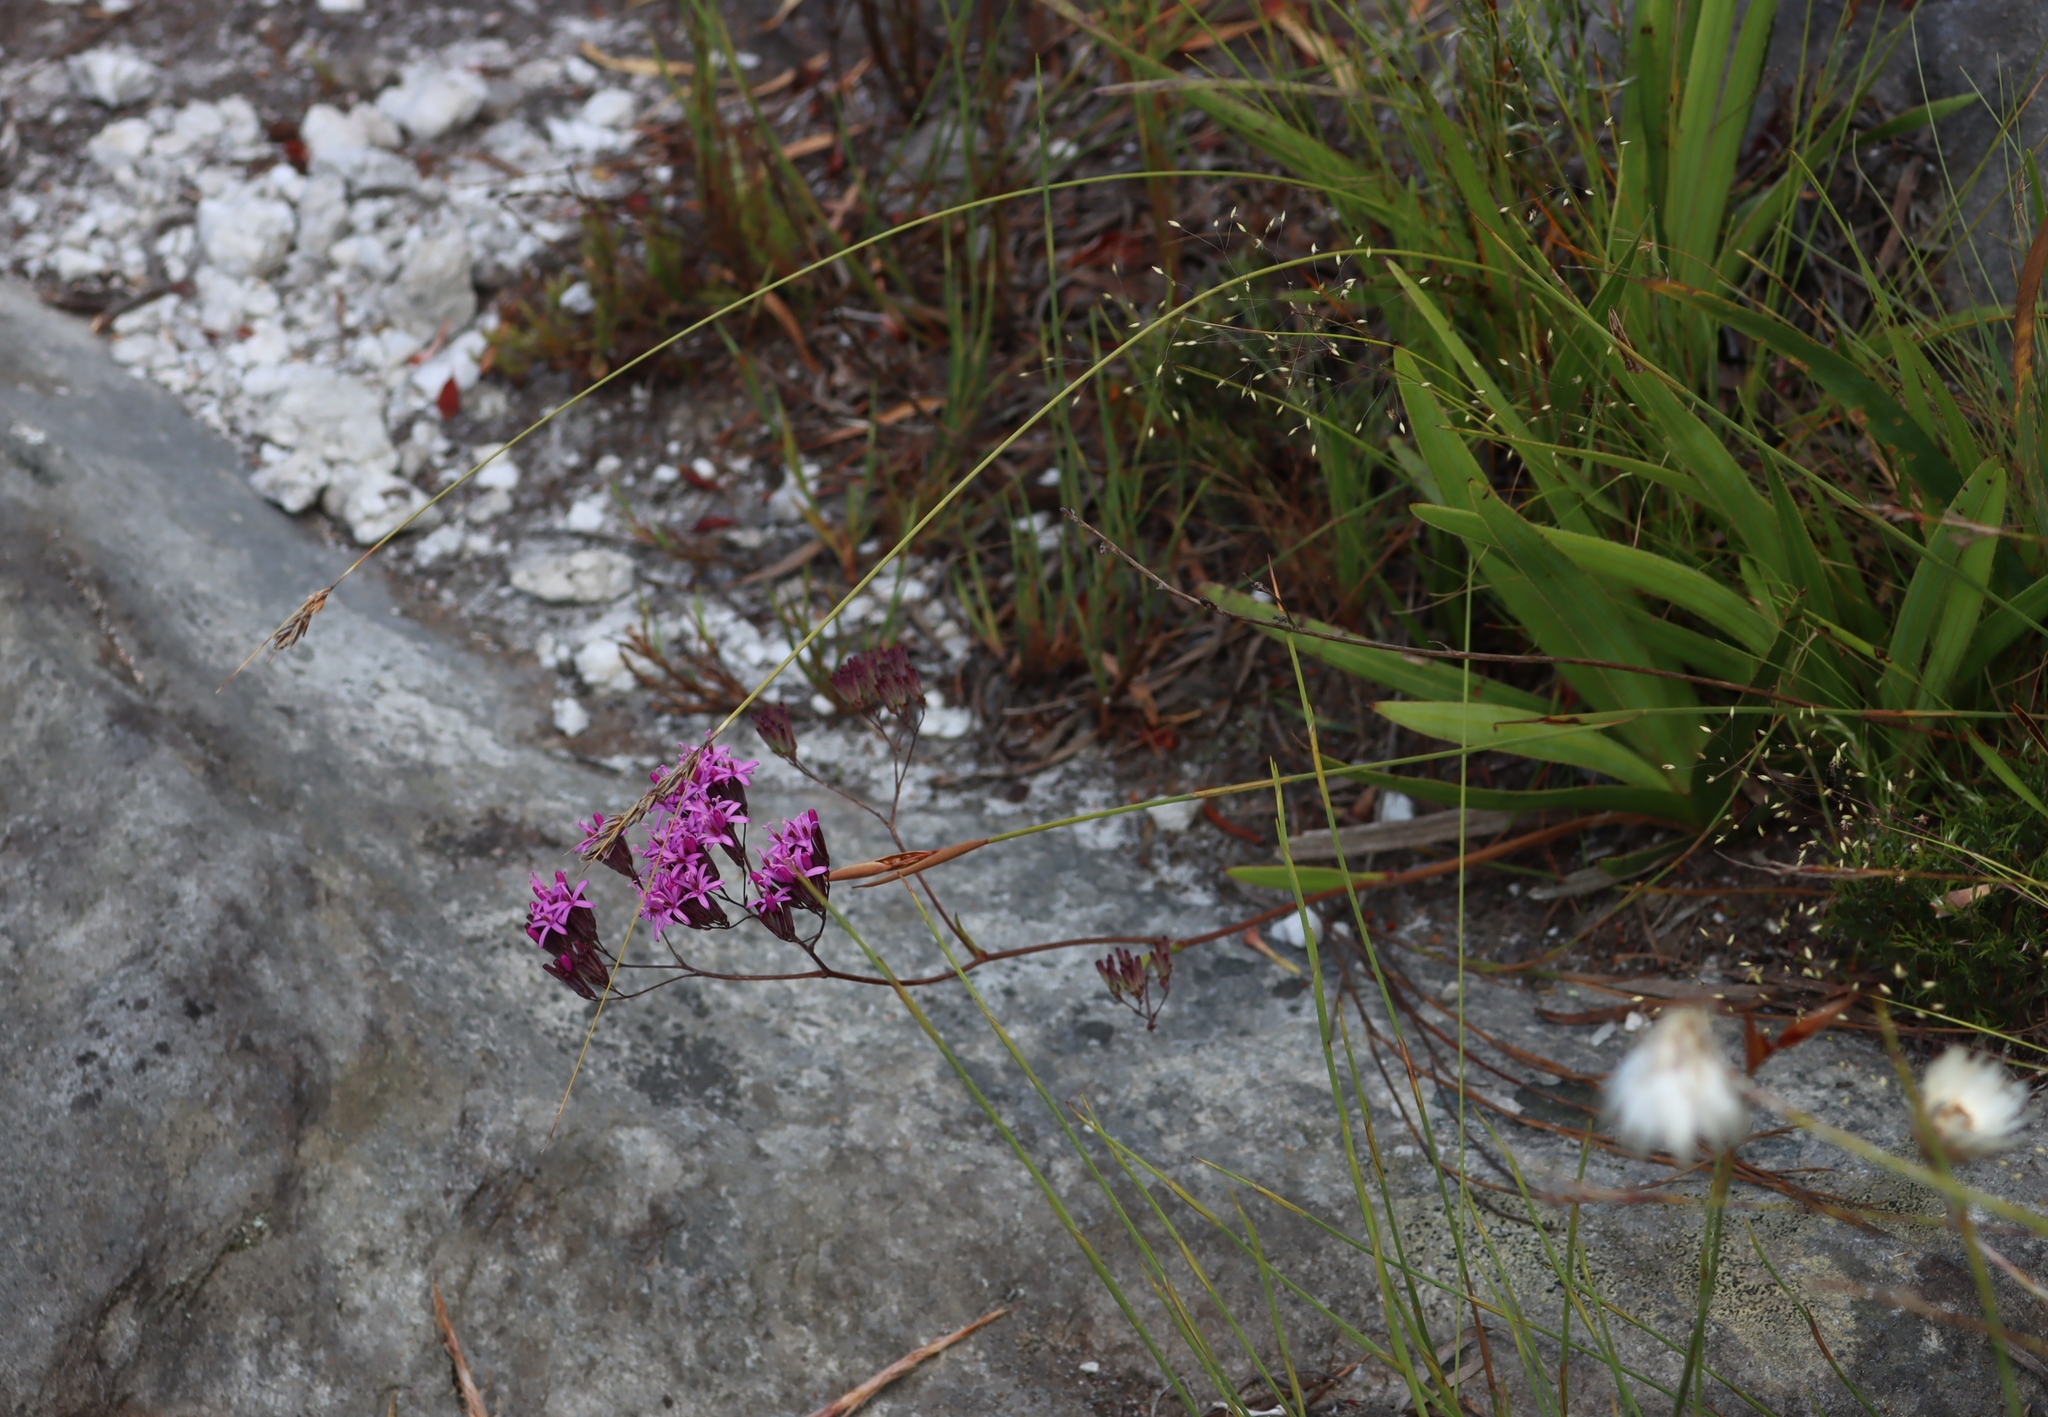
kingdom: Plantae
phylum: Tracheophyta
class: Magnoliopsida
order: Asterales
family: Asteraceae
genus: Corymbium
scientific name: Corymbium glabrum
